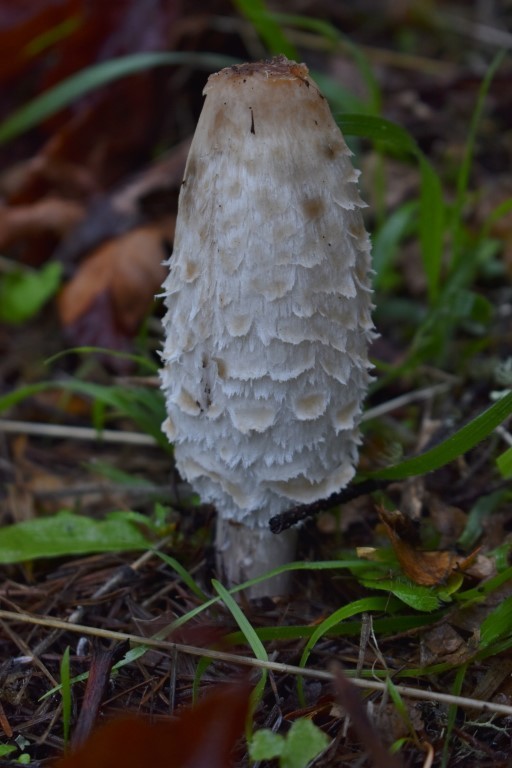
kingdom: Fungi
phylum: Basidiomycota
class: Agaricomycetes
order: Agaricales
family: Agaricaceae
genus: Coprinus
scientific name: Coprinus comatus
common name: Lawyer's wig
